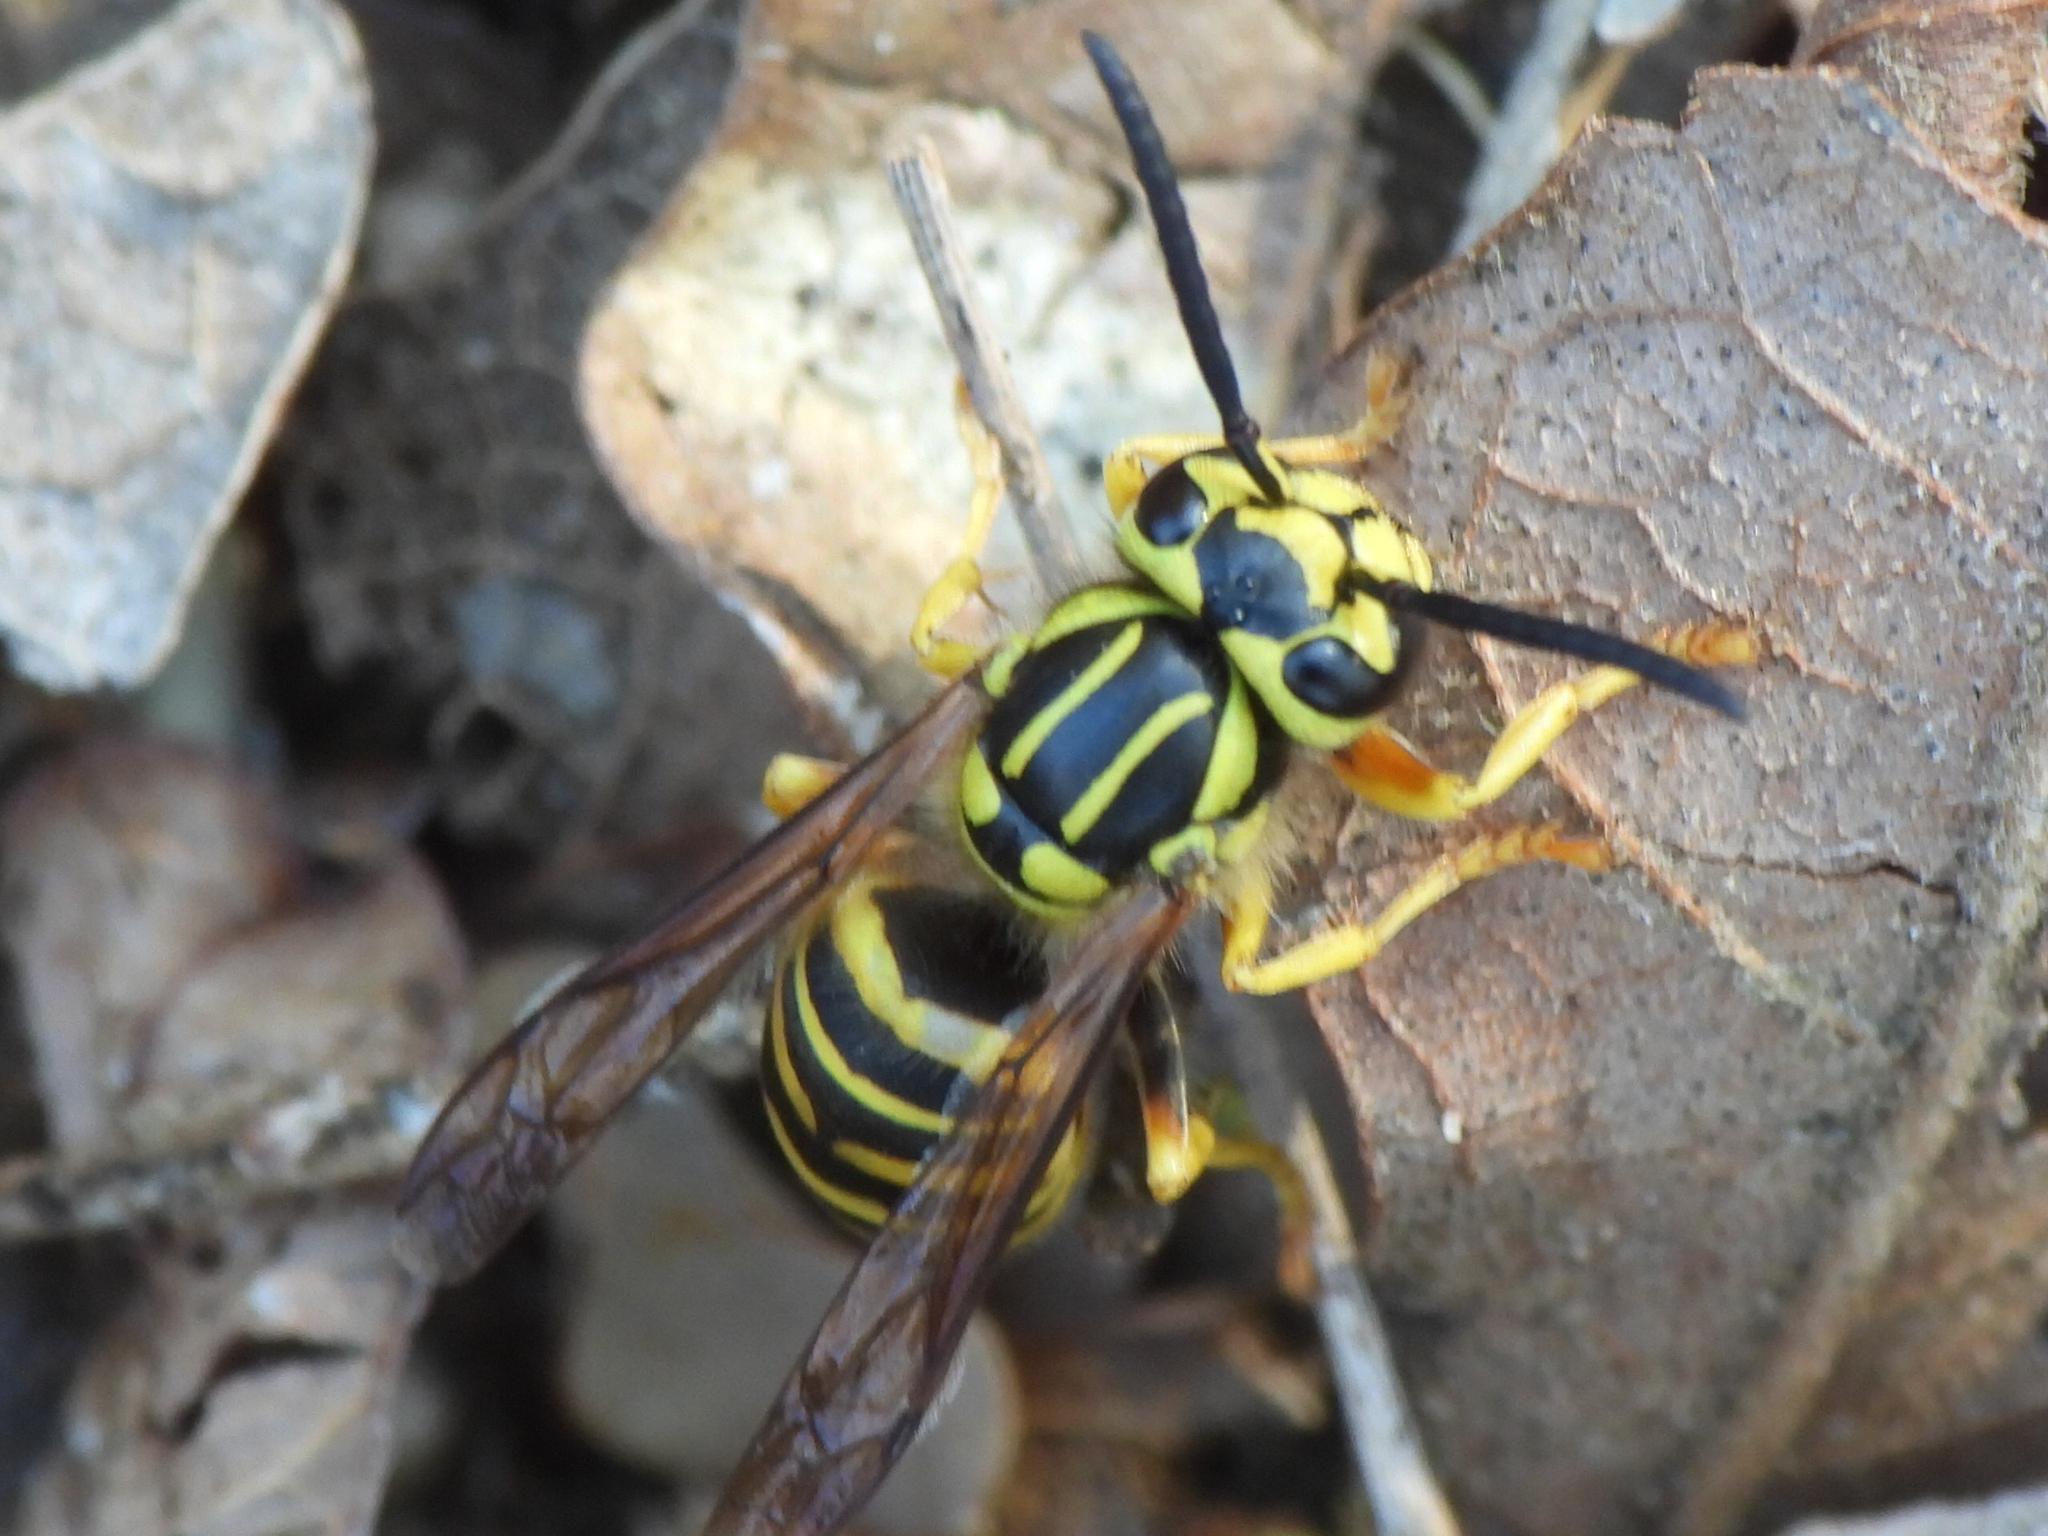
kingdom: Animalia
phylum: Arthropoda
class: Insecta
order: Hymenoptera
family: Vespidae
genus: Vespula
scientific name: Vespula squamosa
